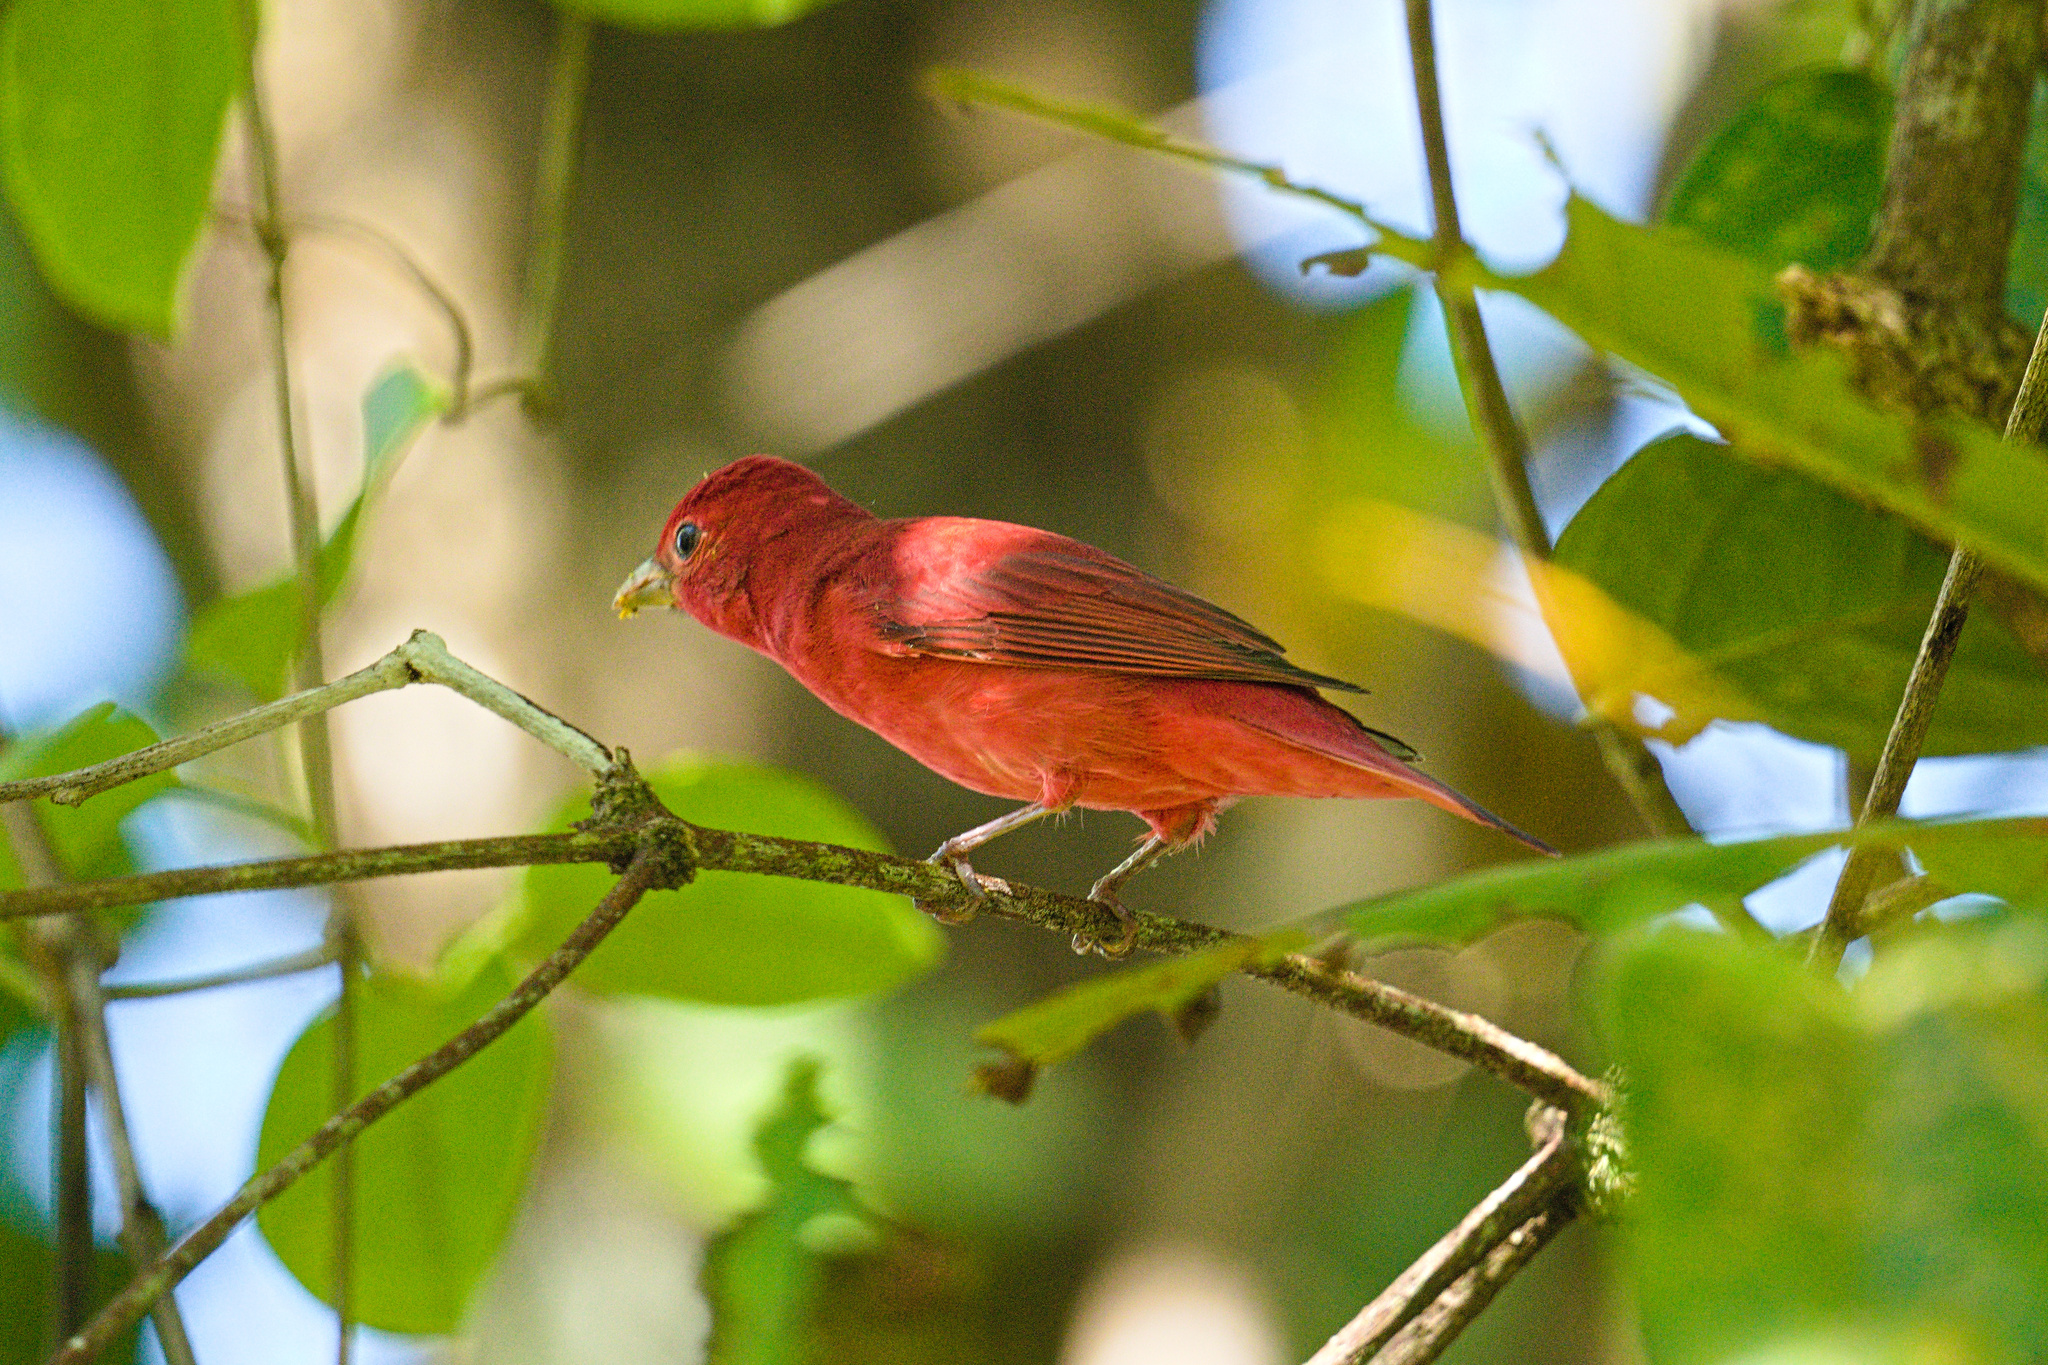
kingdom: Animalia
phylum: Chordata
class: Aves
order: Passeriformes
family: Cardinalidae
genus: Piranga
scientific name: Piranga rubra
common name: Summer tanager
